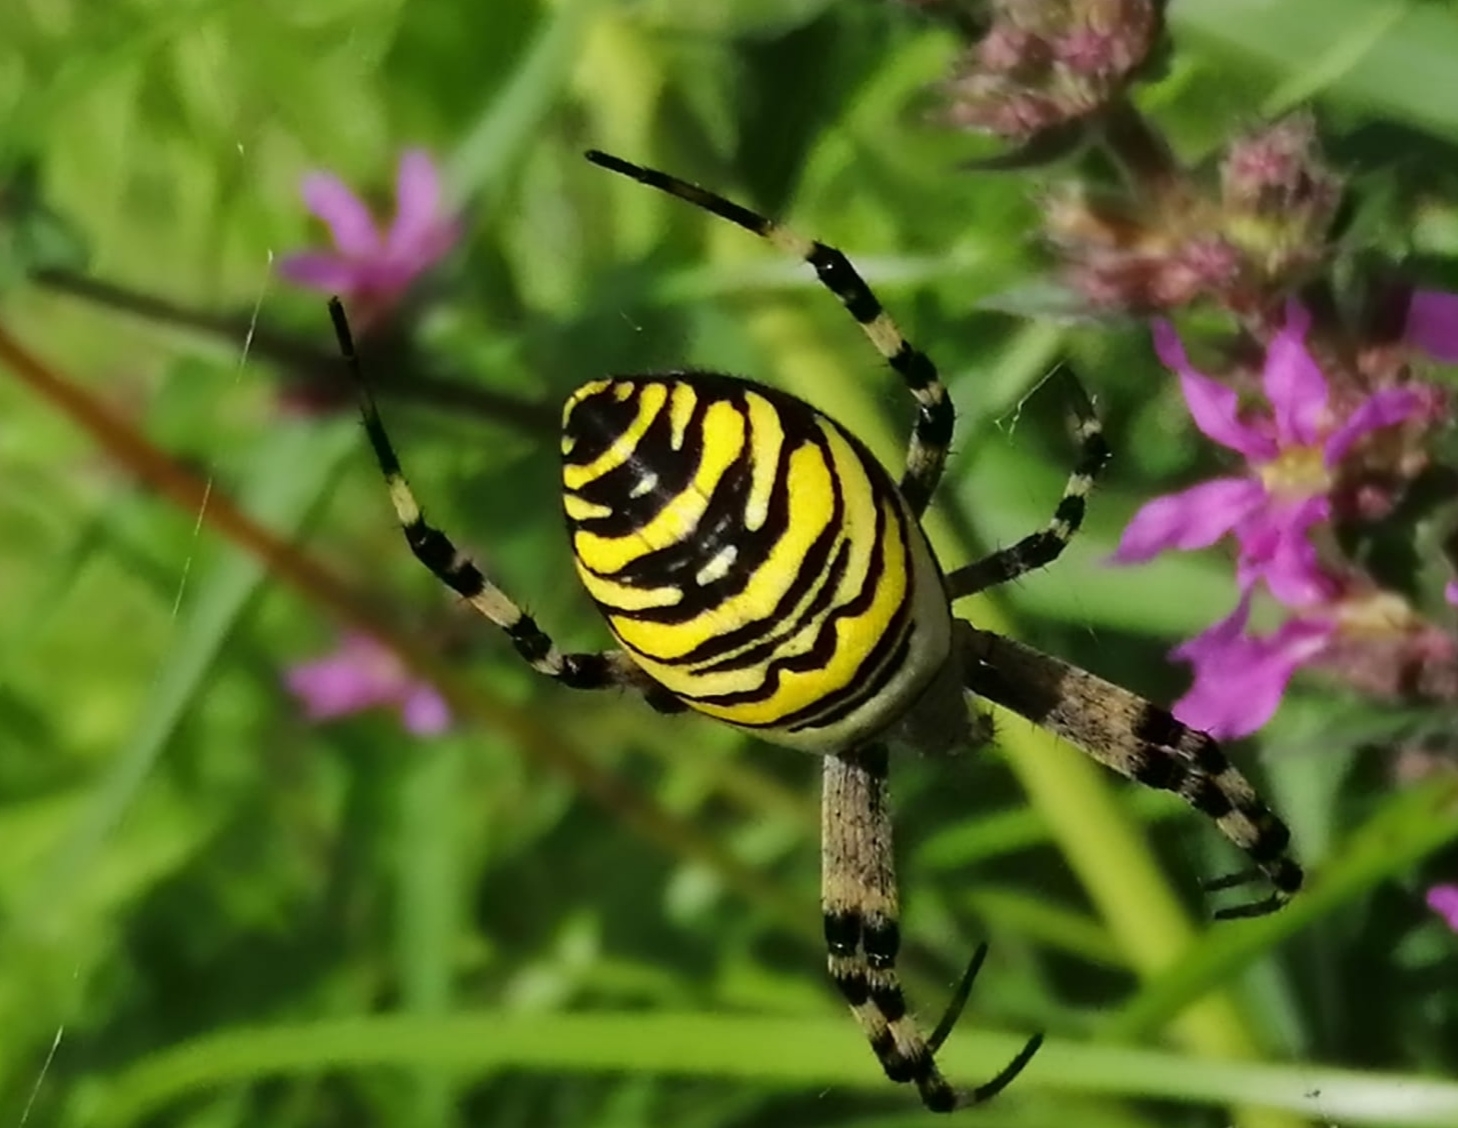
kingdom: Animalia
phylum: Arthropoda
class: Arachnida
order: Araneae
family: Araneidae
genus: Argiope
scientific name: Argiope bruennichi
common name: Wasp spider
